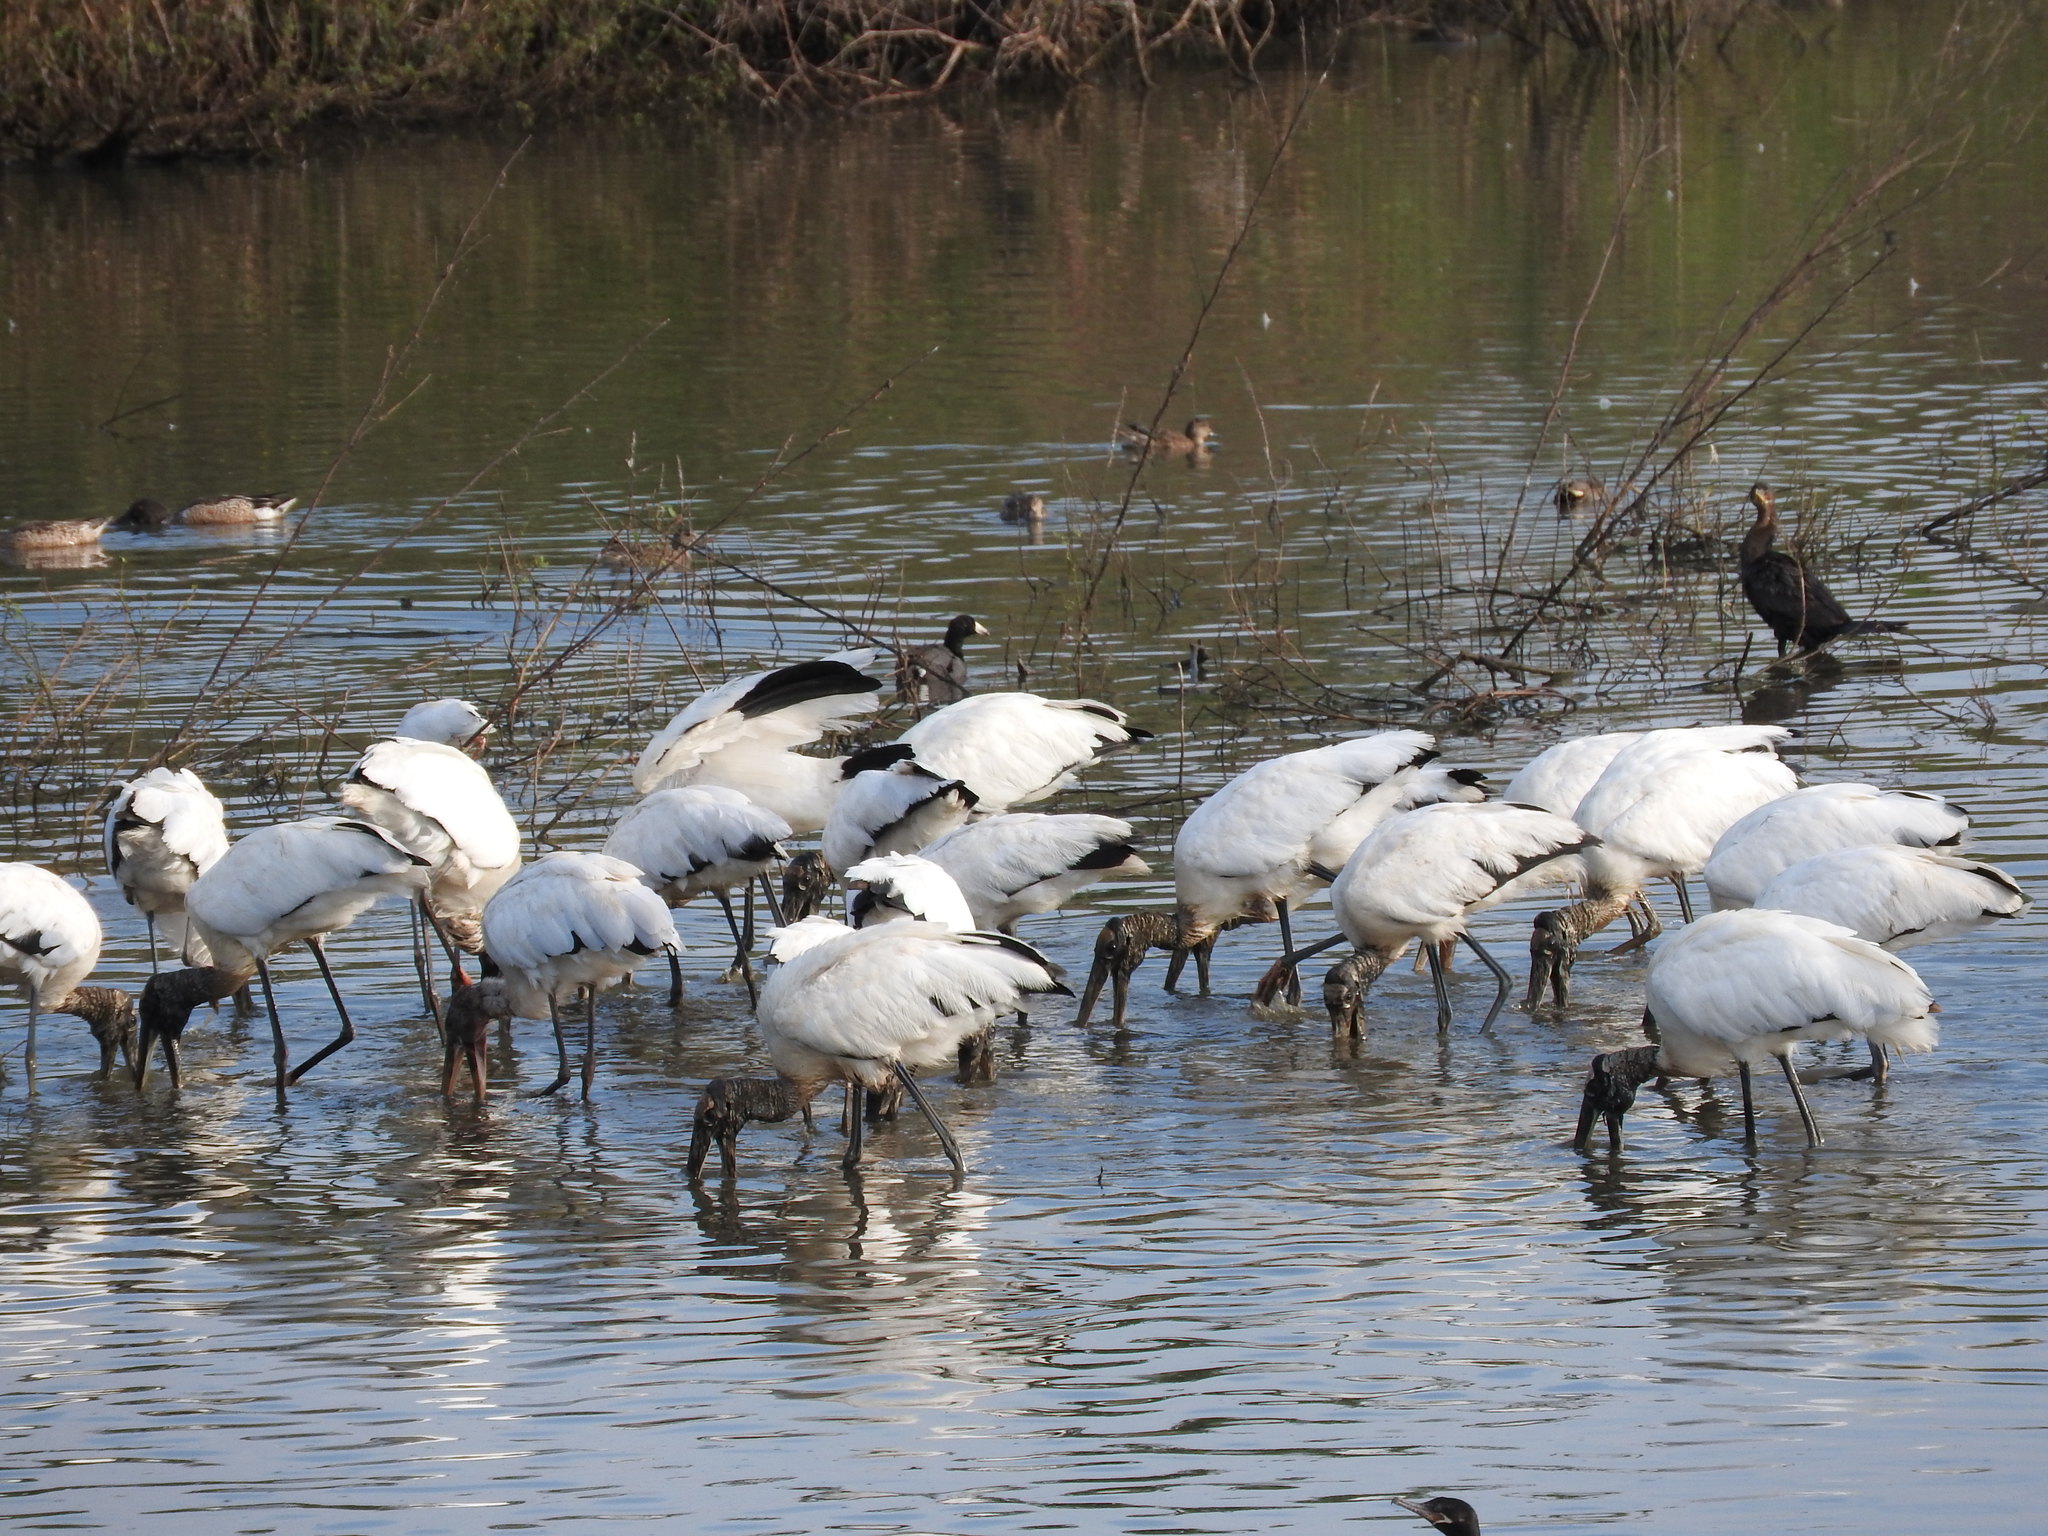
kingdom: Animalia
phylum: Chordata
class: Aves
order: Ciconiiformes
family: Ciconiidae
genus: Mycteria
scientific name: Mycteria americana
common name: Wood stork
